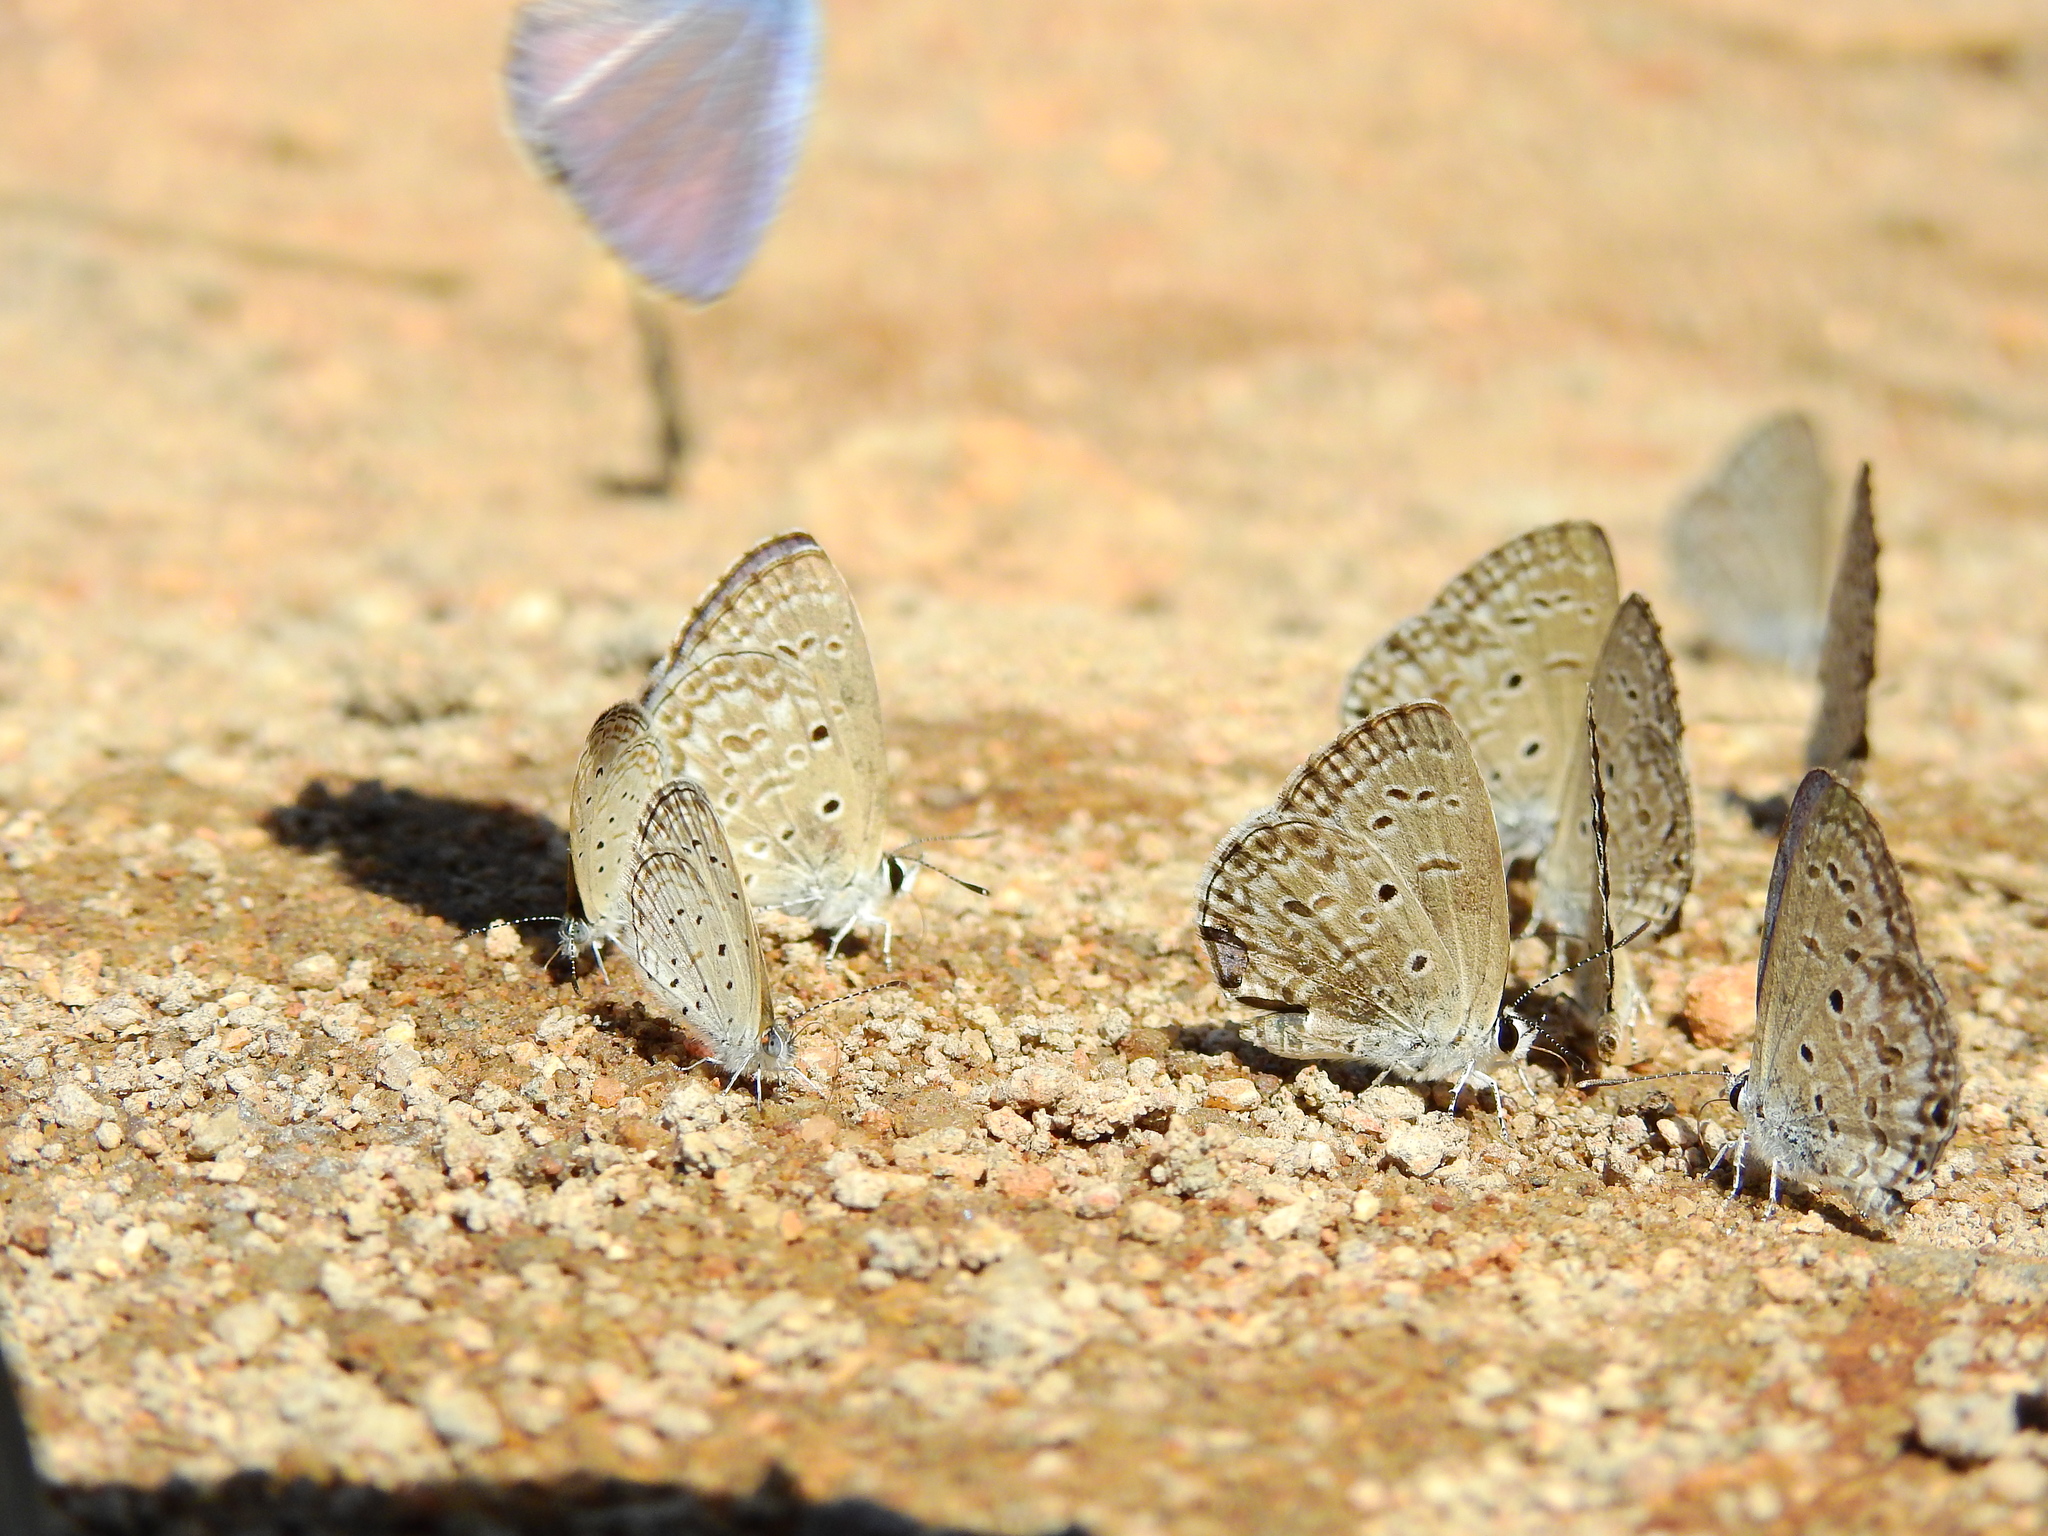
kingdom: Animalia
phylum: Arthropoda
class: Insecta
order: Lepidoptera
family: Lycaenidae
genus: Chilades
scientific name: Chilades laius
